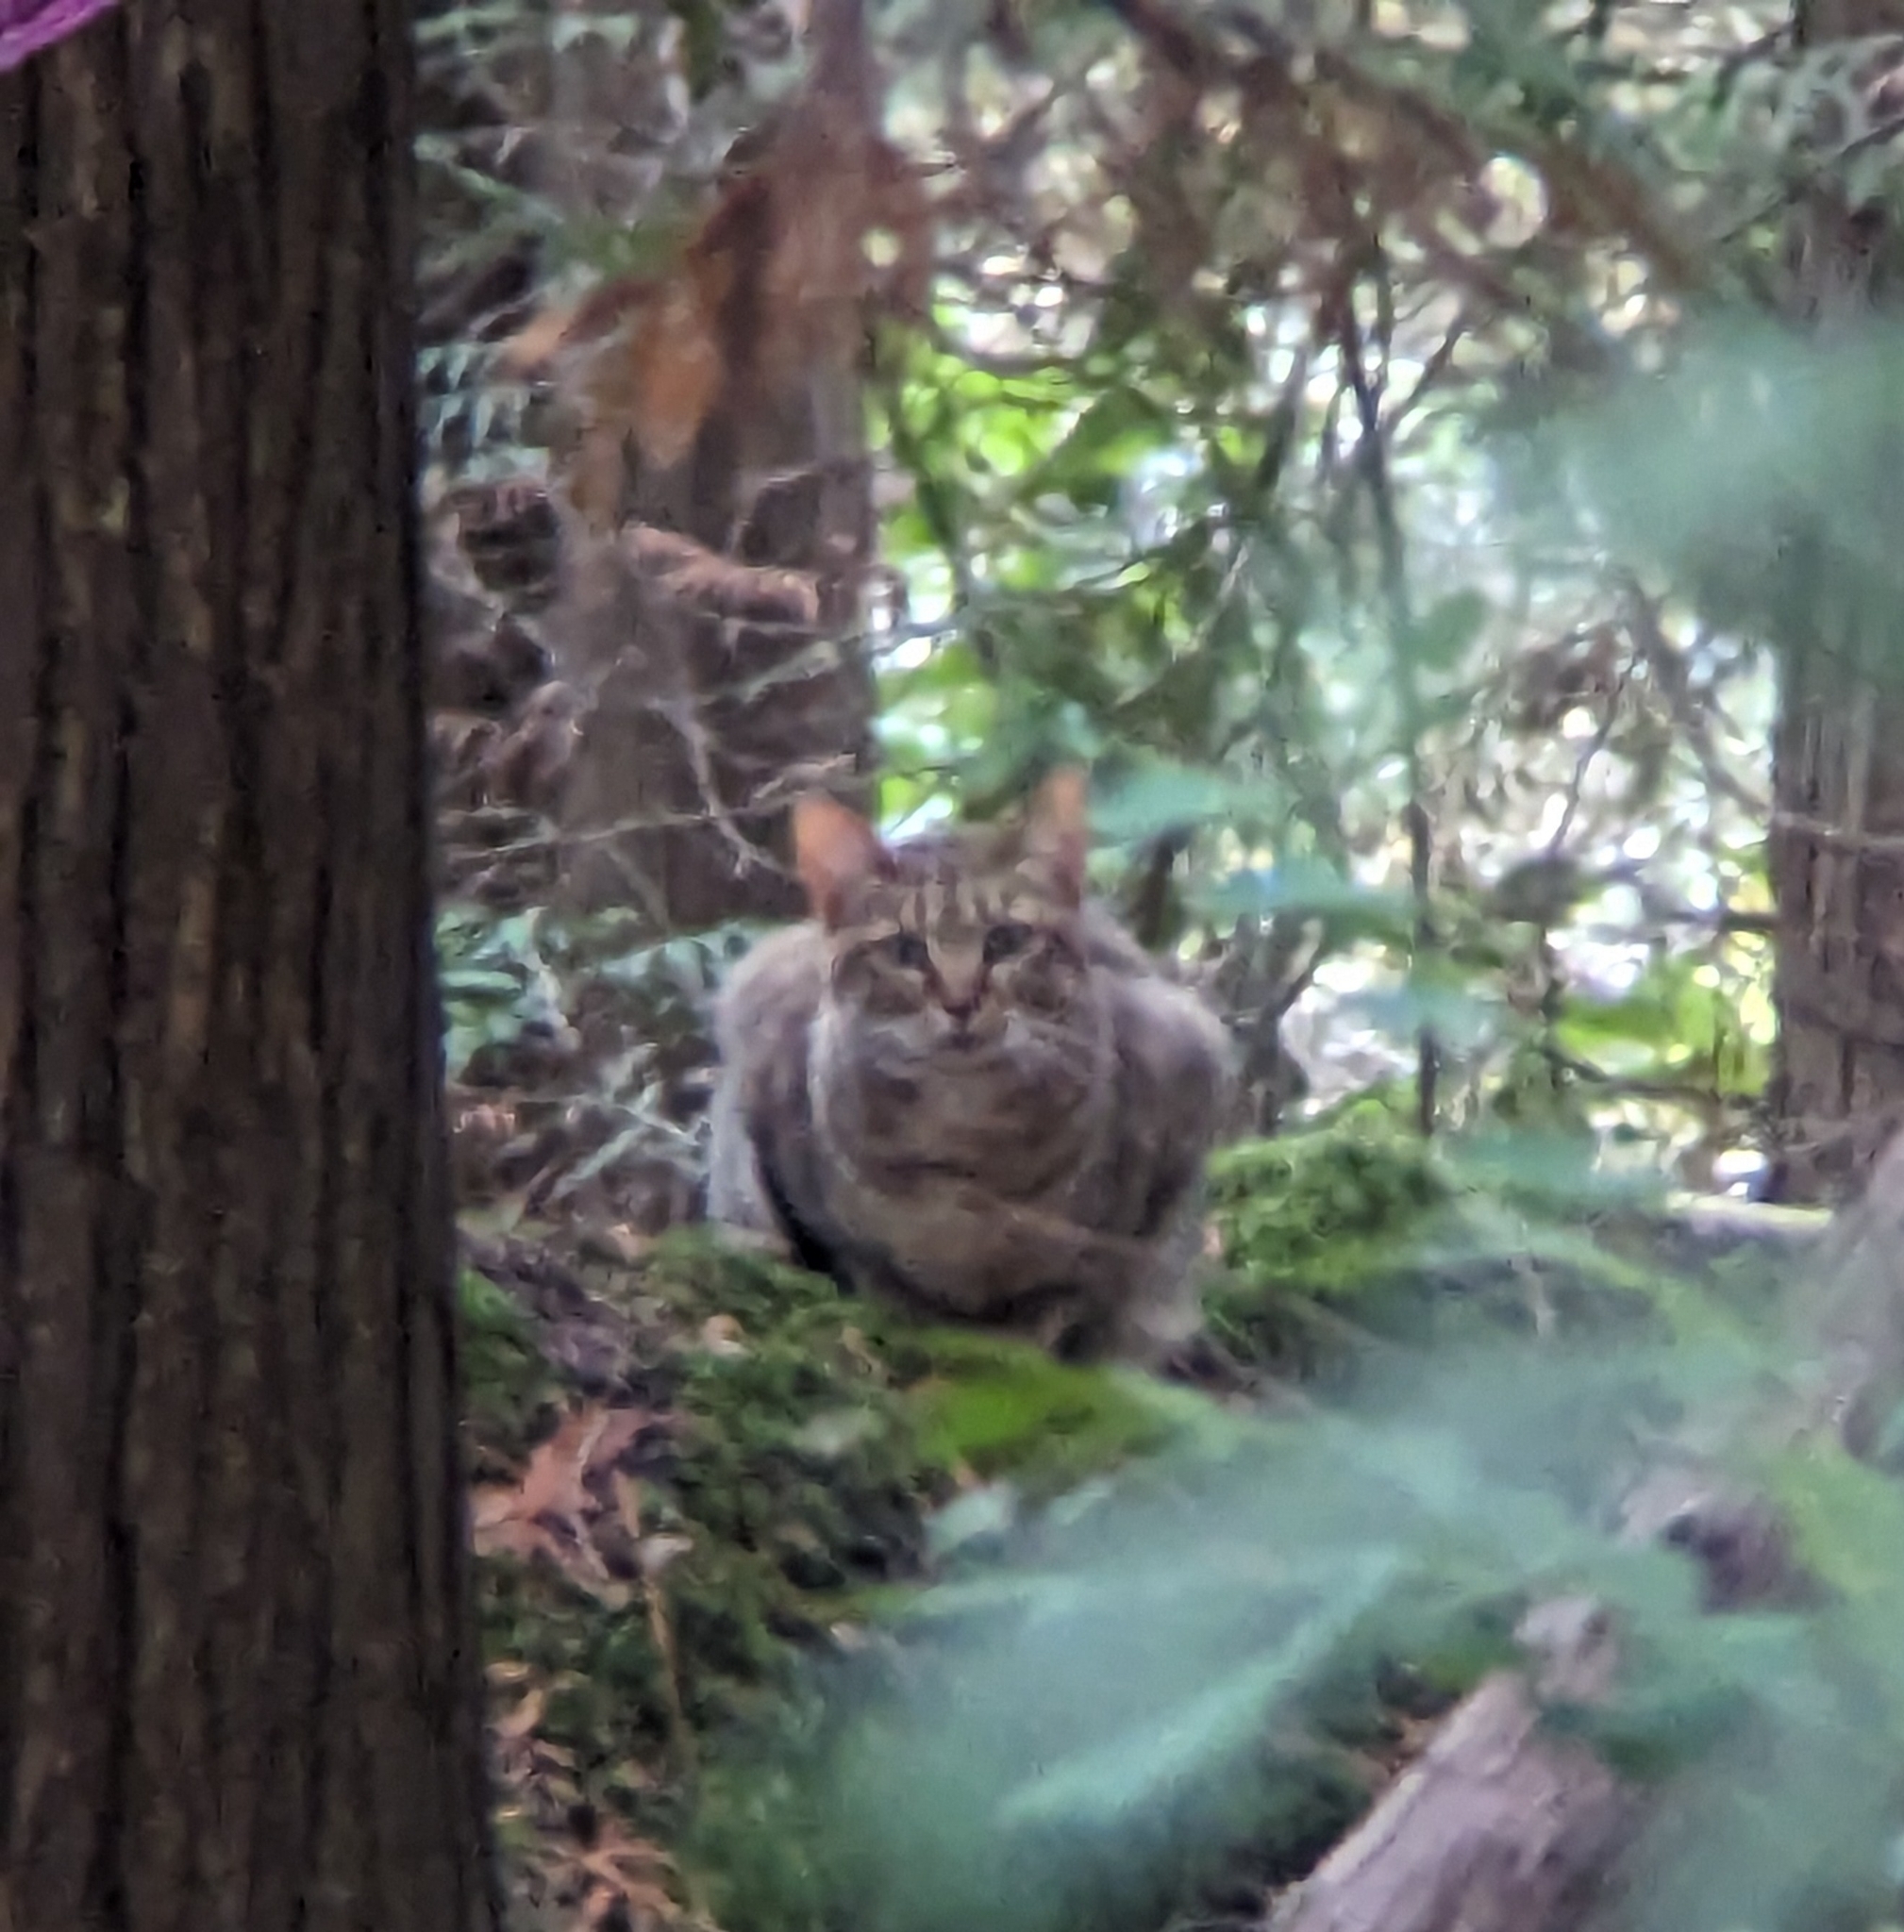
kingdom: Animalia
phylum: Chordata
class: Mammalia
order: Carnivora
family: Felidae
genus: Felis
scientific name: Felis catus
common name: Domestic cat
